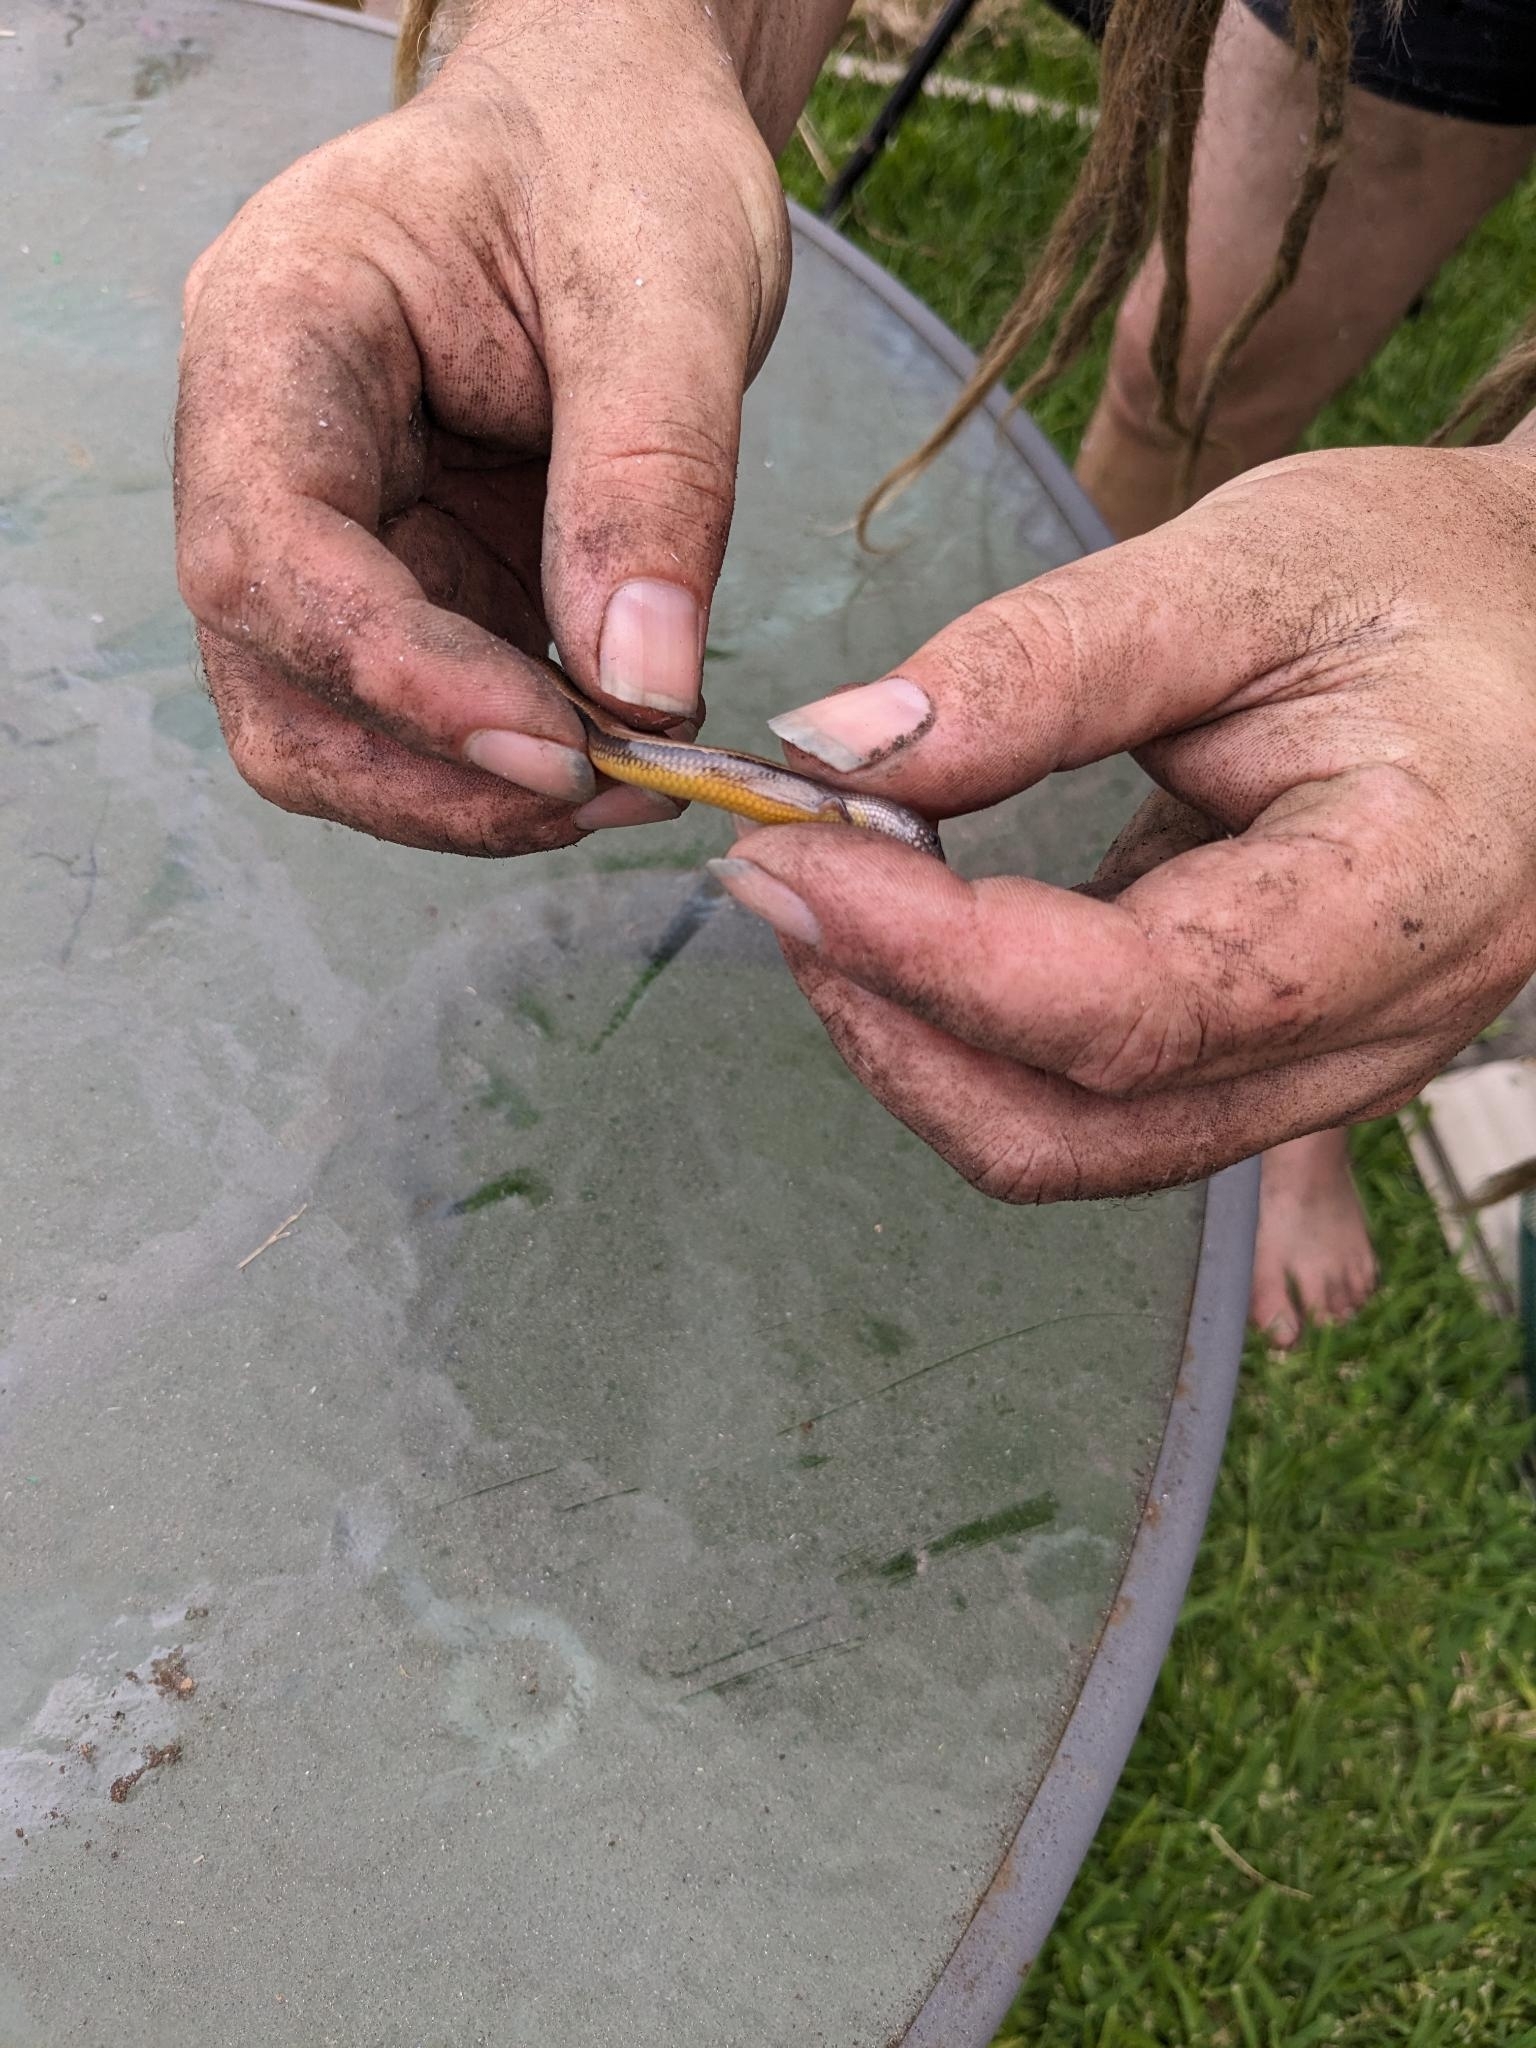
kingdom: Animalia
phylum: Chordata
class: Squamata
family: Scincidae
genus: Saiphos
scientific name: Saiphos equalis
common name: Three-toed skink
